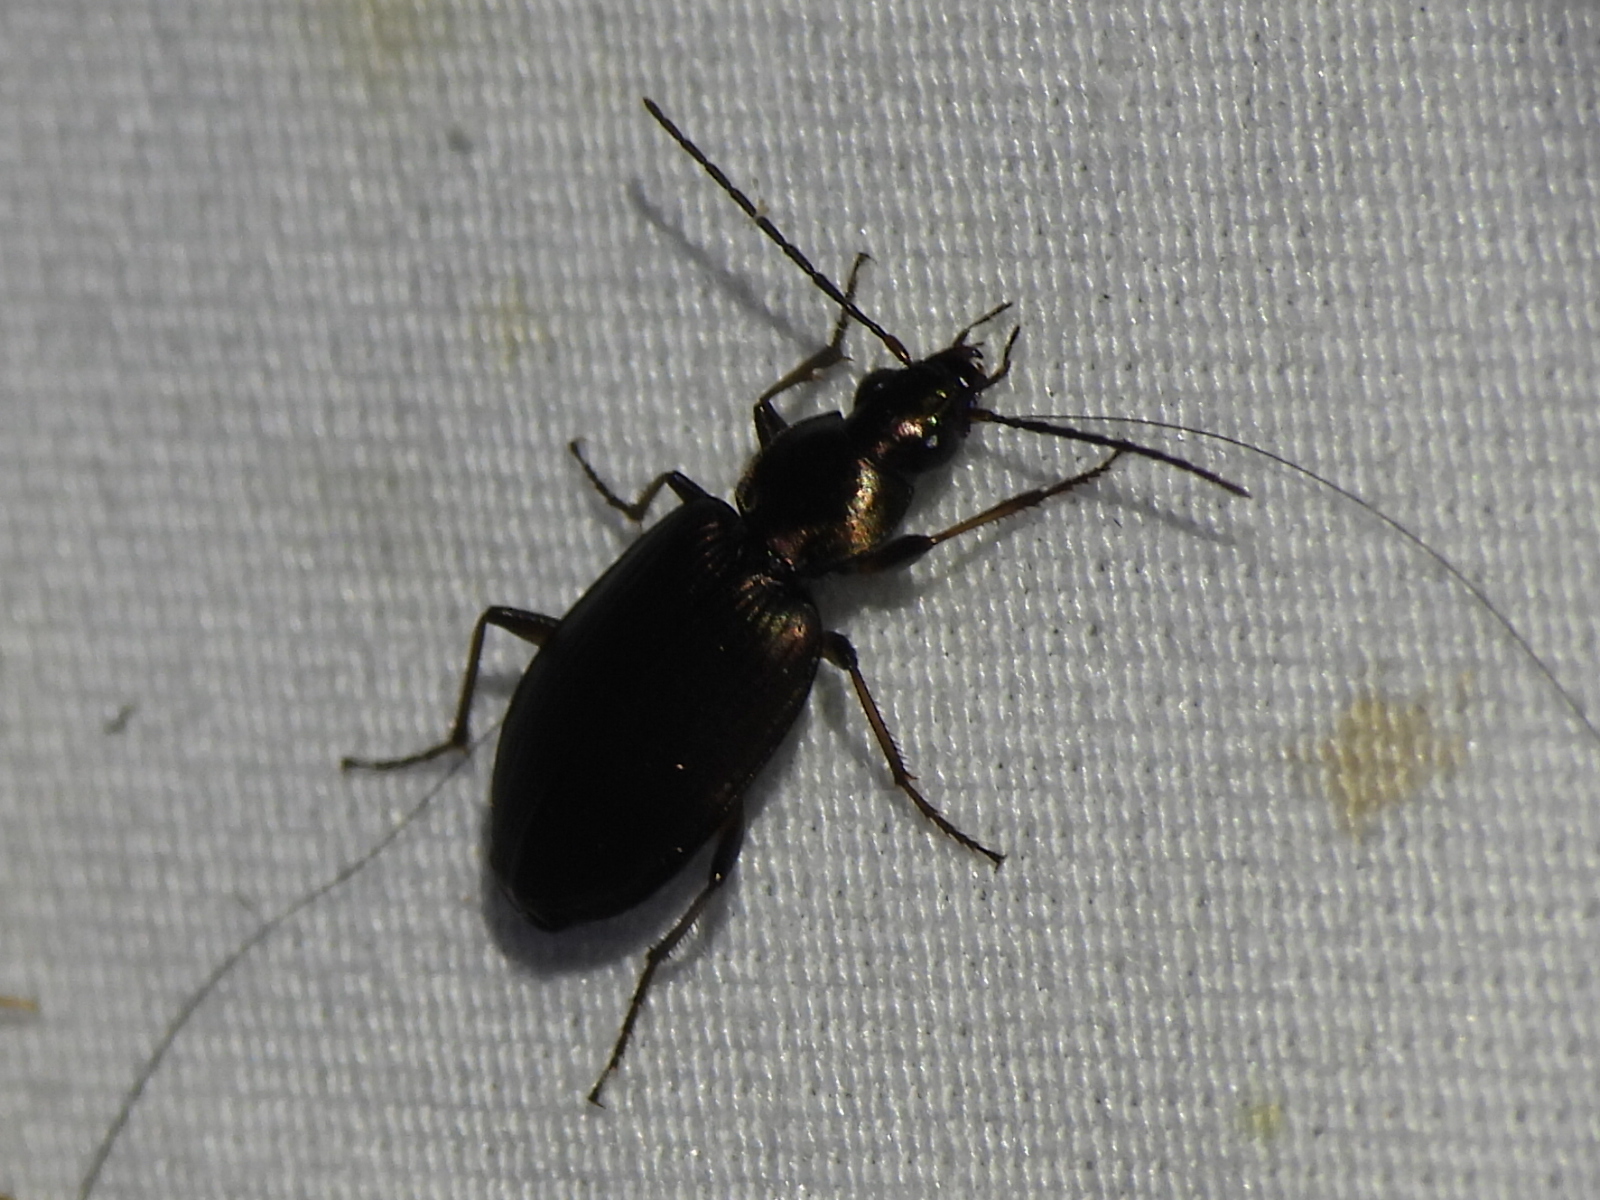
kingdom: Animalia
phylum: Arthropoda
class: Insecta
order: Coleoptera
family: Carabidae
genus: Agonum
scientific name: Agonum texanum
